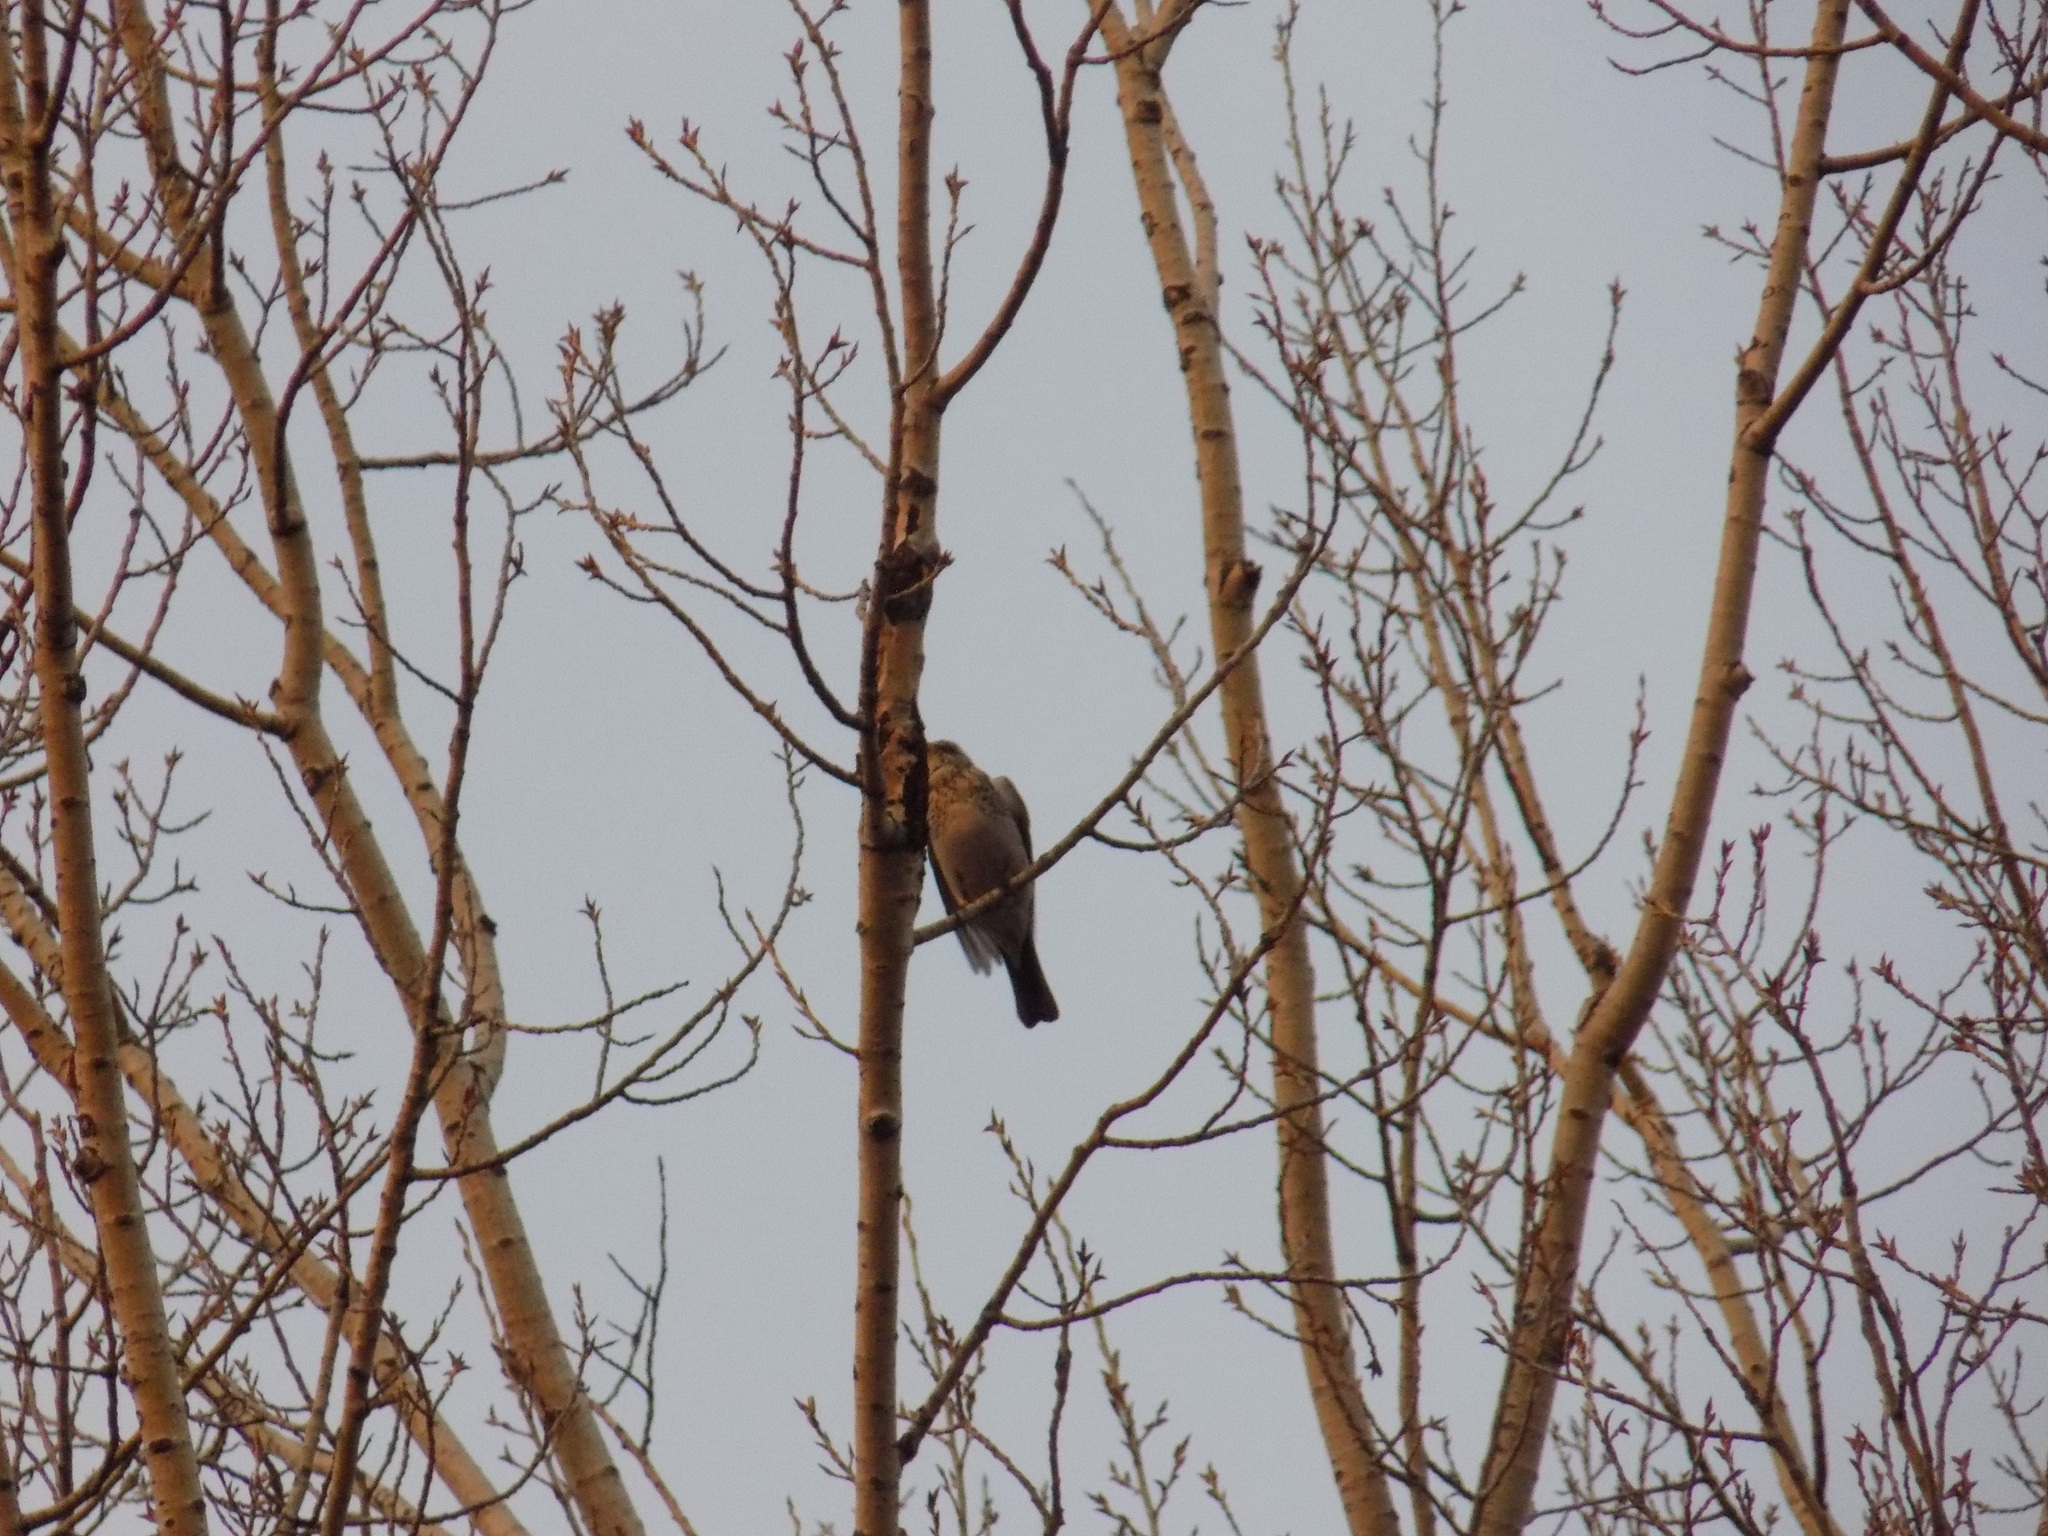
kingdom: Animalia
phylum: Chordata
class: Aves
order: Passeriformes
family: Turdidae
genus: Turdus
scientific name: Turdus pilaris
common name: Fieldfare
